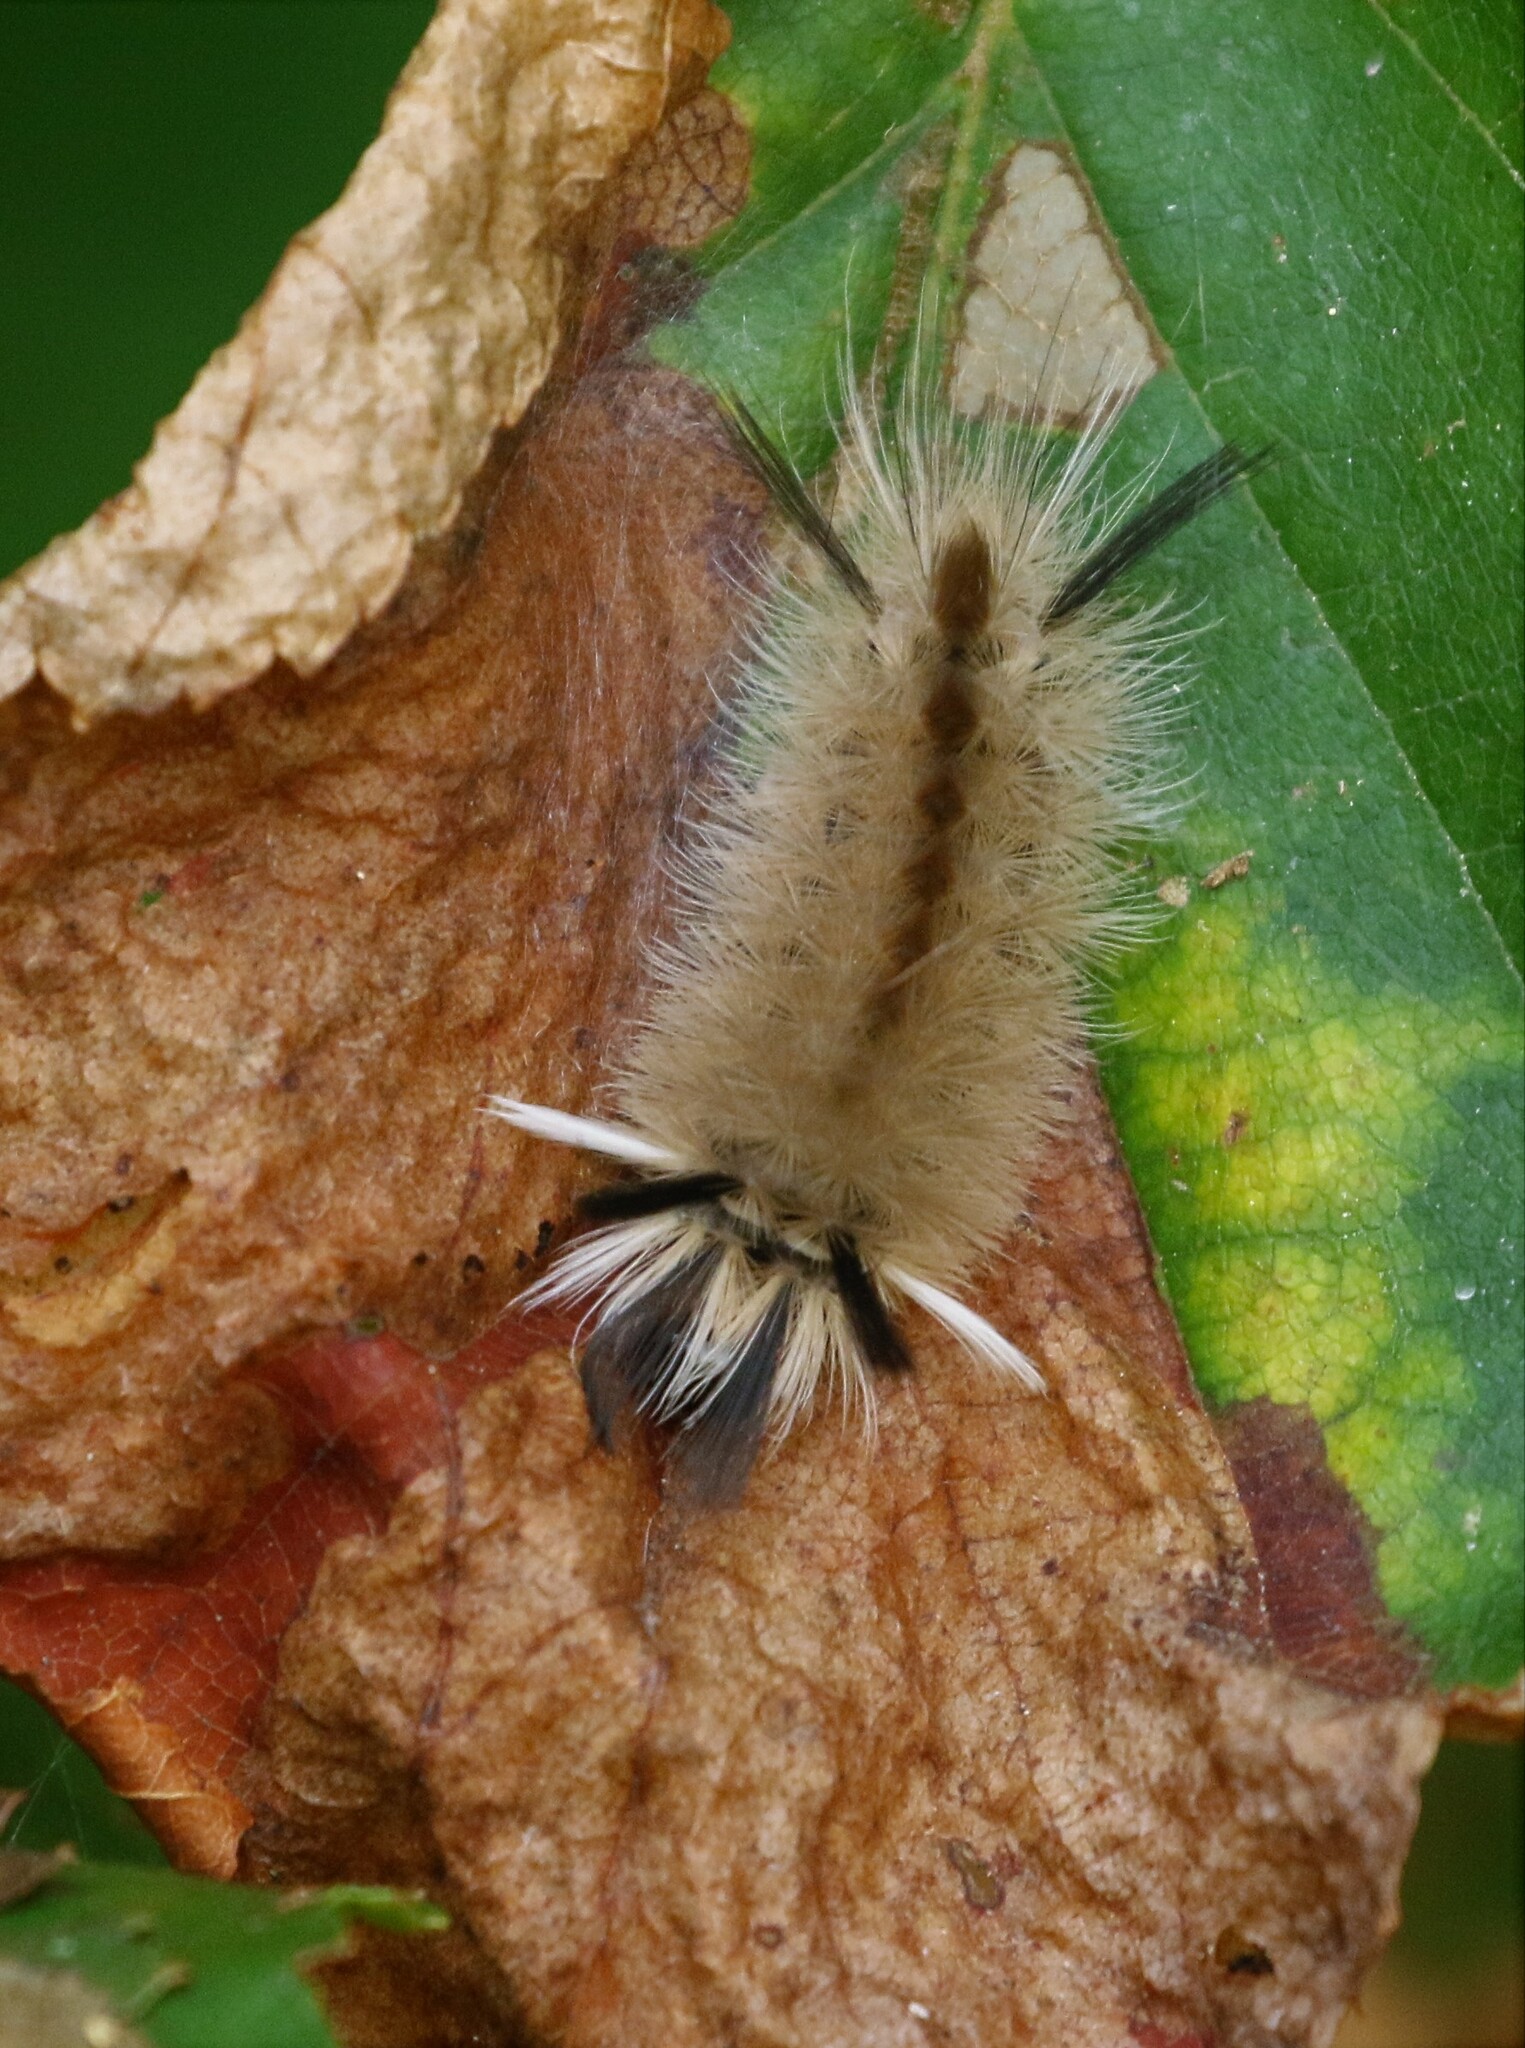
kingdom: Animalia
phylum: Arthropoda
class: Insecta
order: Lepidoptera
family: Erebidae
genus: Halysidota
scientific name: Halysidota tessellaris
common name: Banded tussock moth
